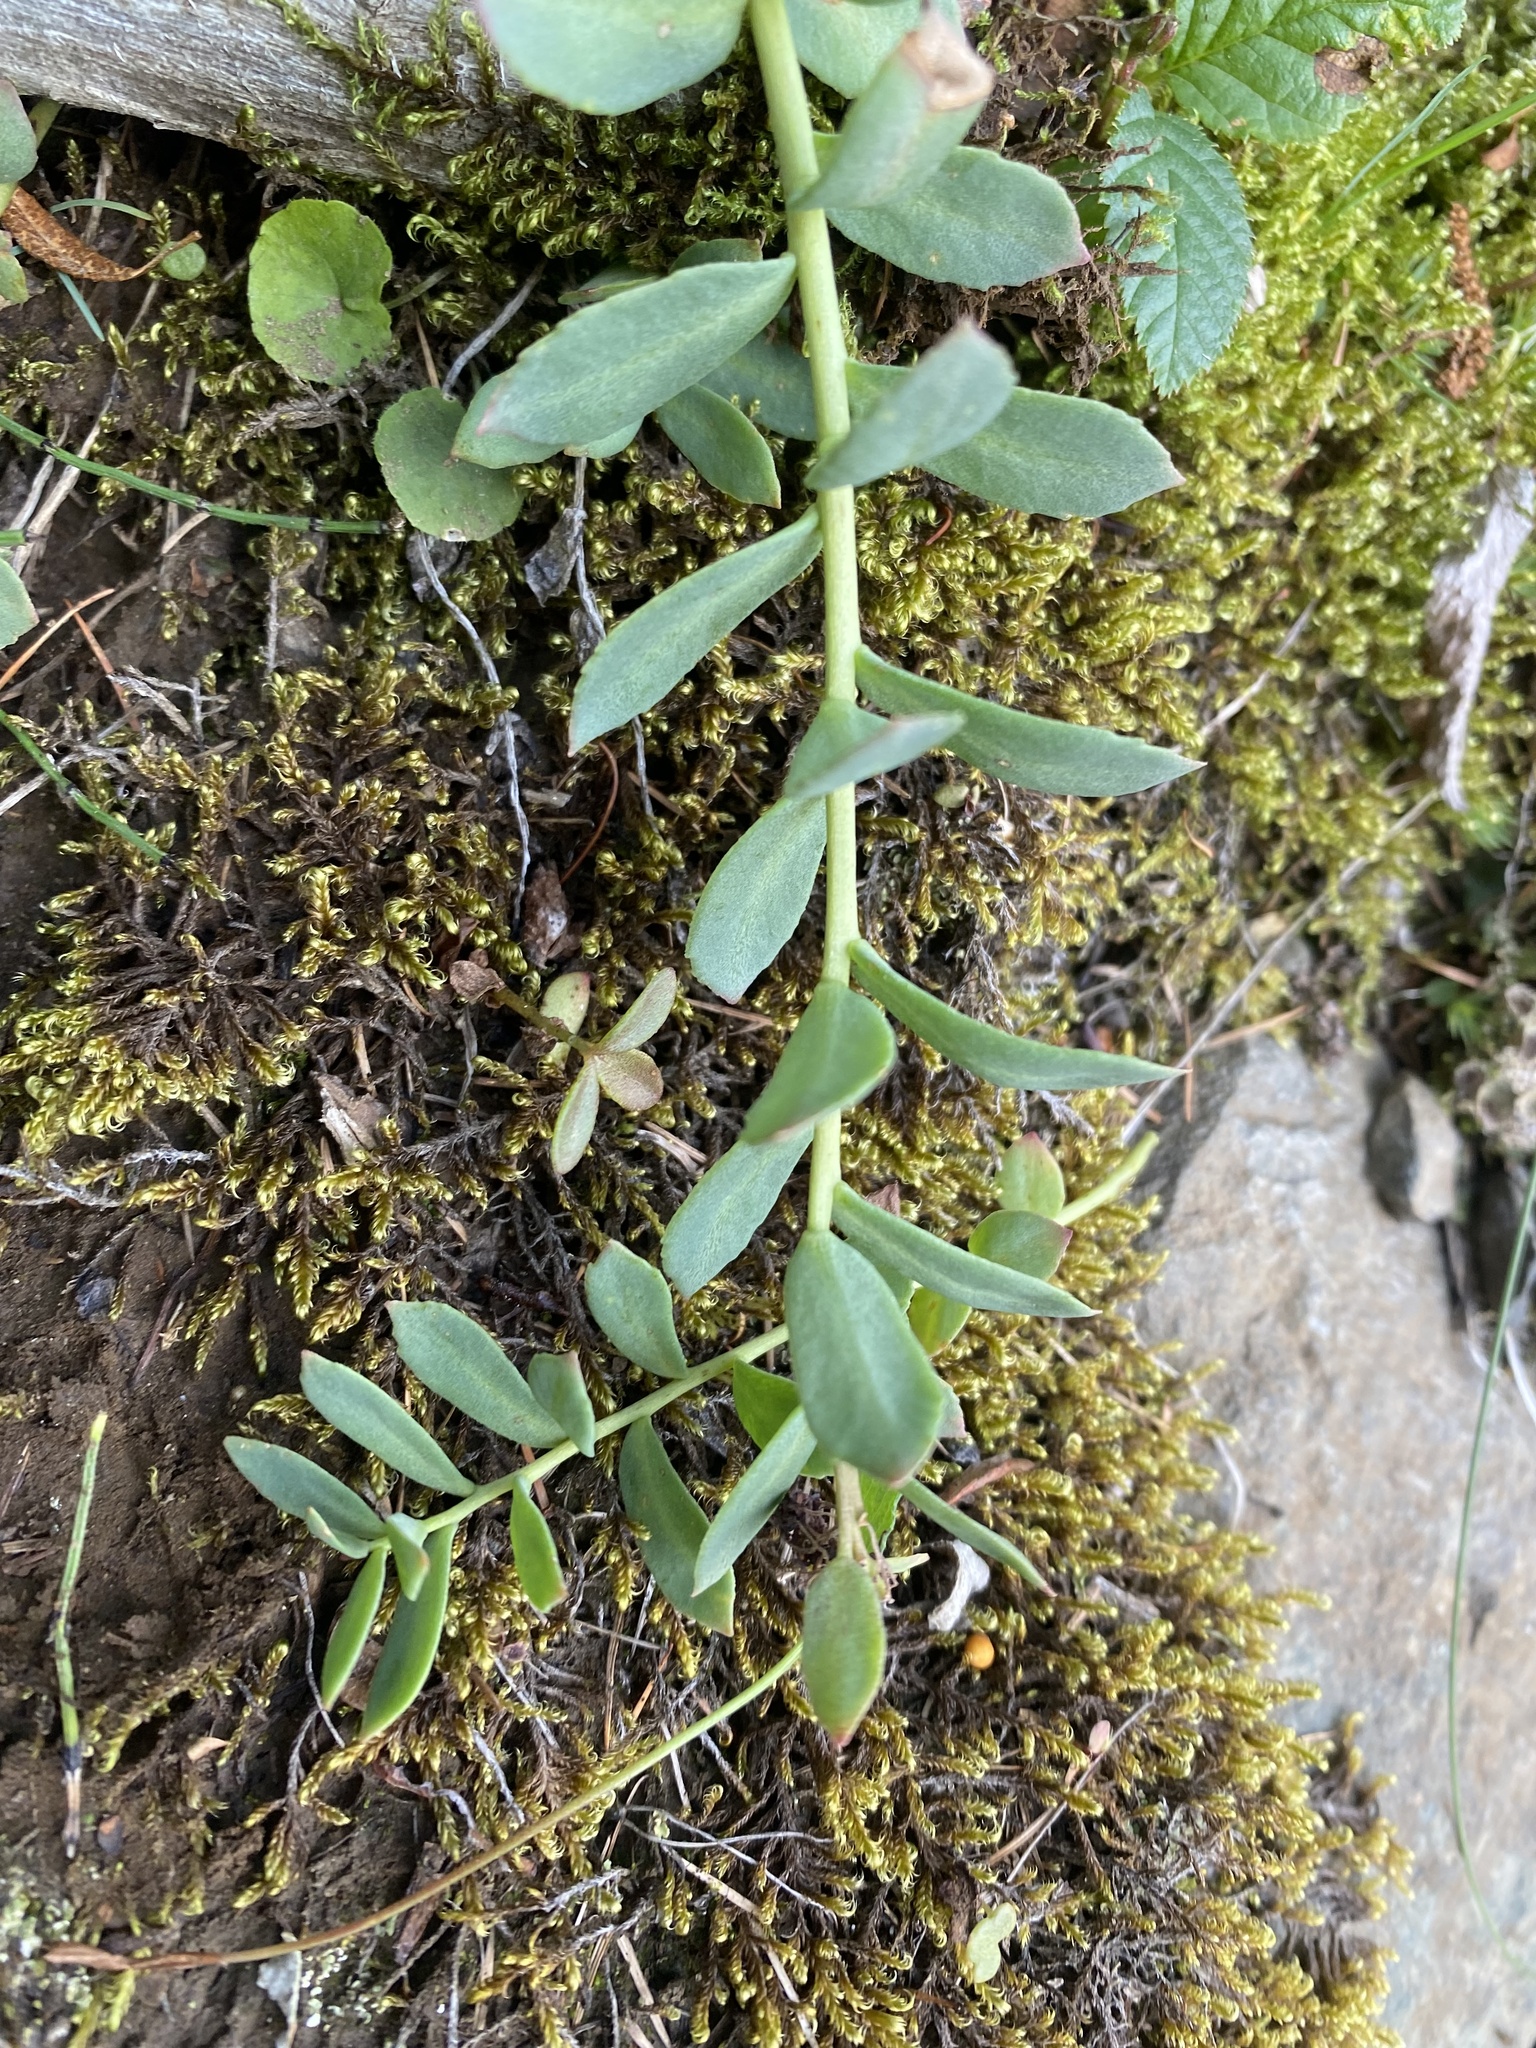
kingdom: Plantae
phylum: Tracheophyta
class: Magnoliopsida
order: Saxifragales
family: Crassulaceae
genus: Rhodiola
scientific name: Rhodiola rosea
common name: Roseroot
